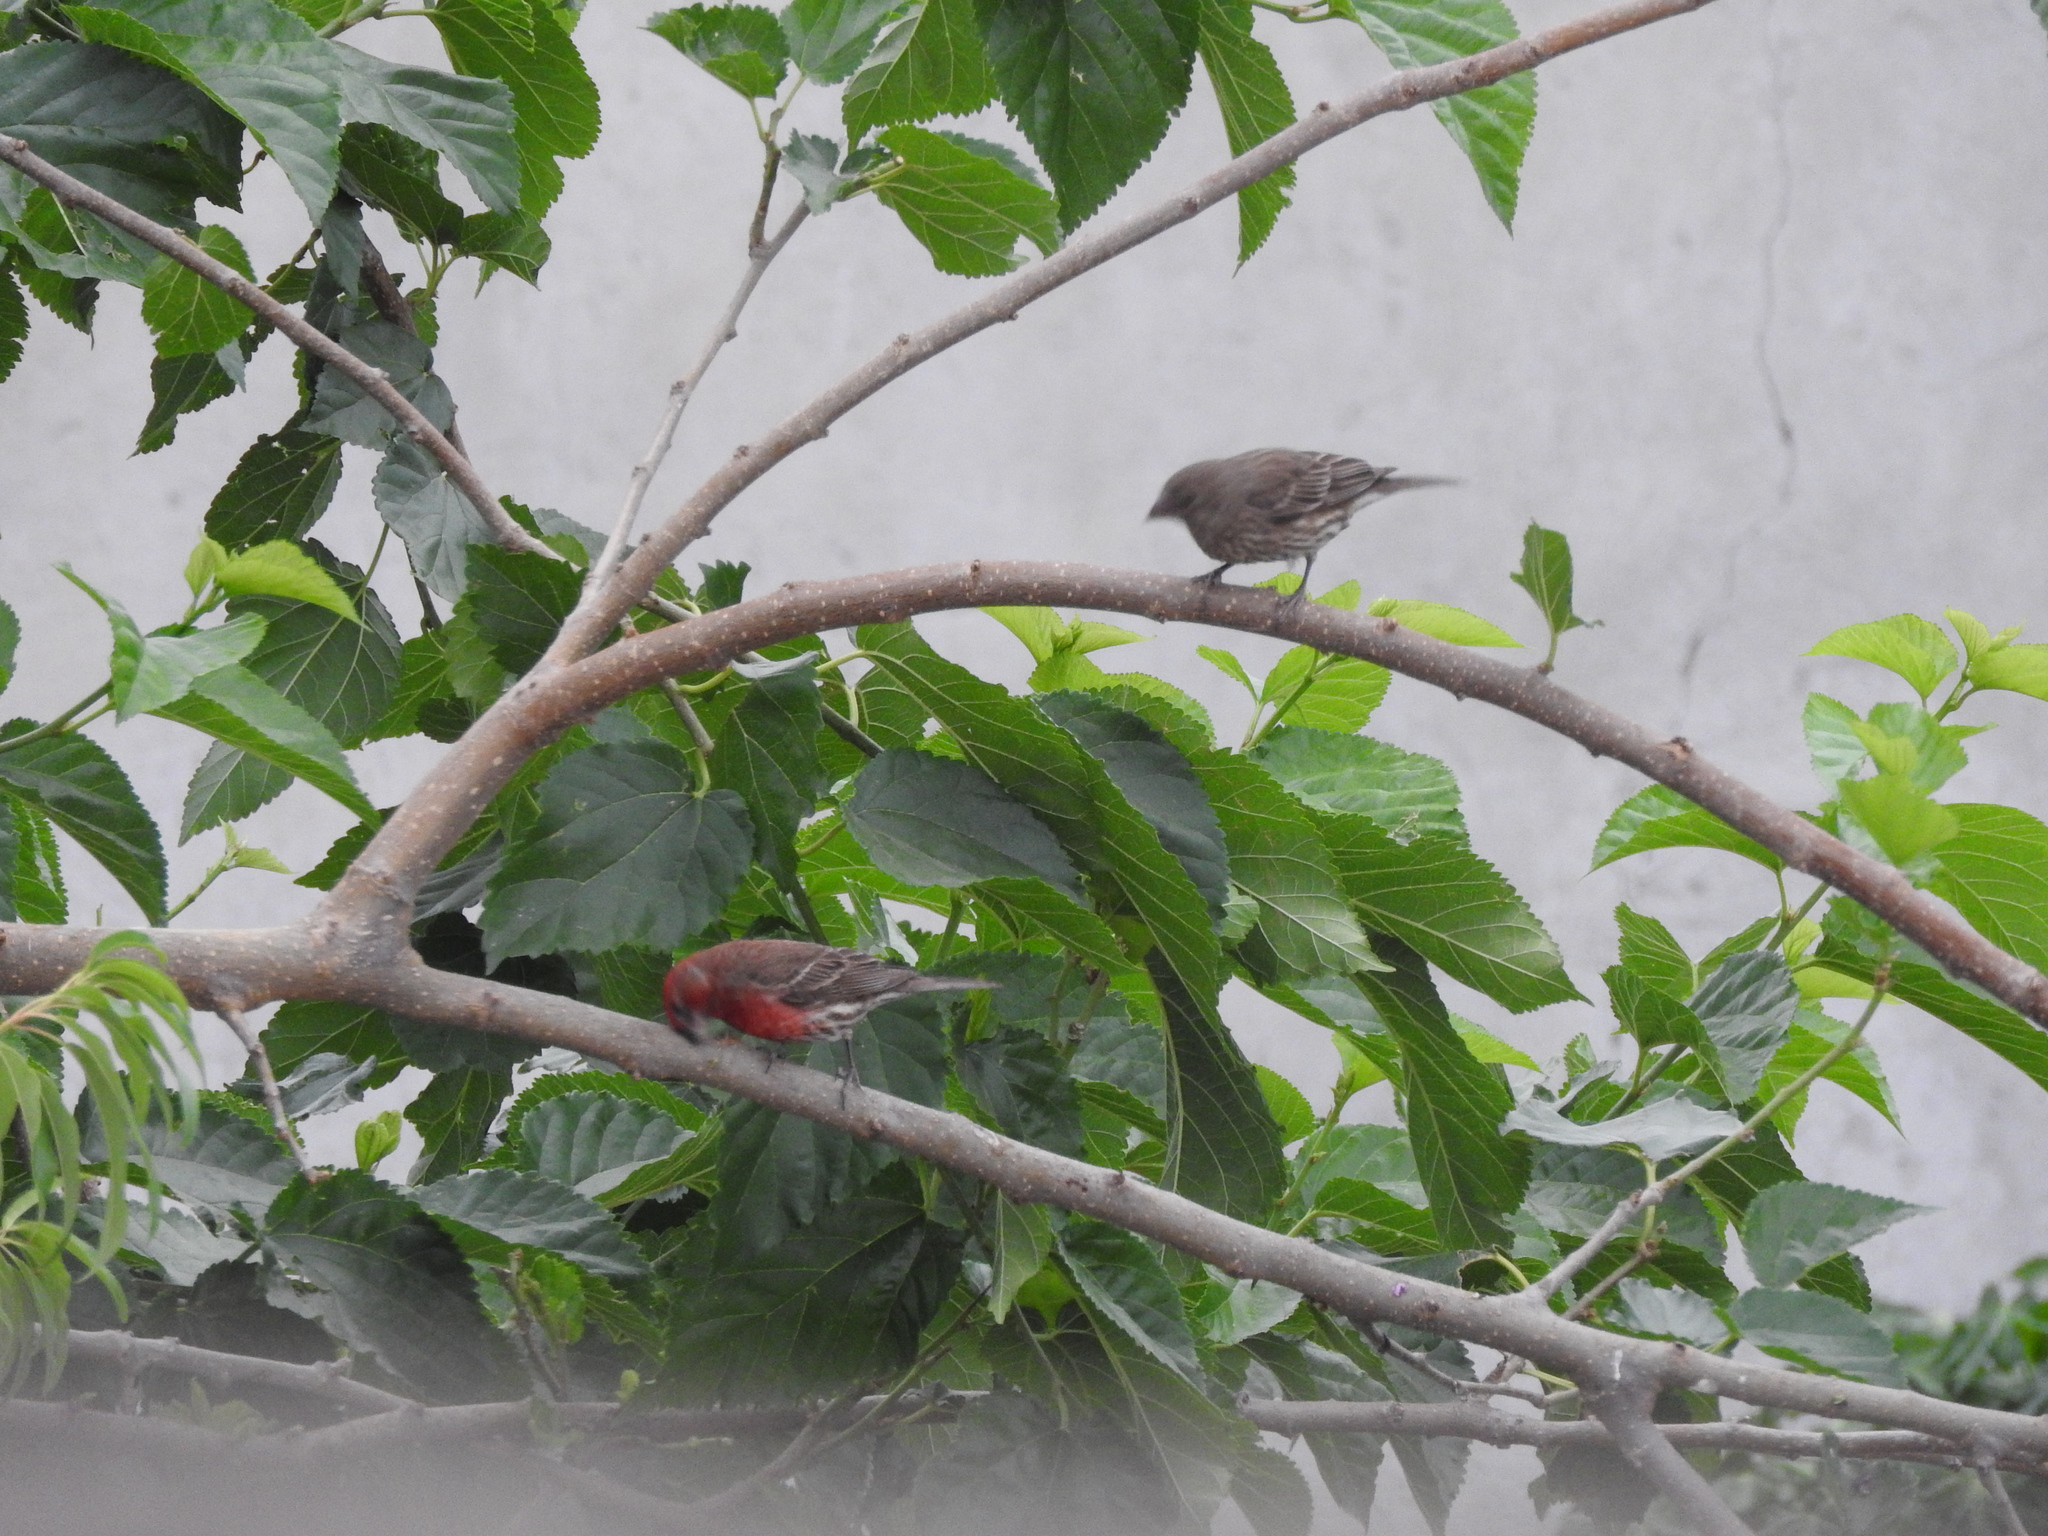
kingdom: Animalia
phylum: Chordata
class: Aves
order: Passeriformes
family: Fringillidae
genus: Haemorhous
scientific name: Haemorhous mexicanus
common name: House finch
